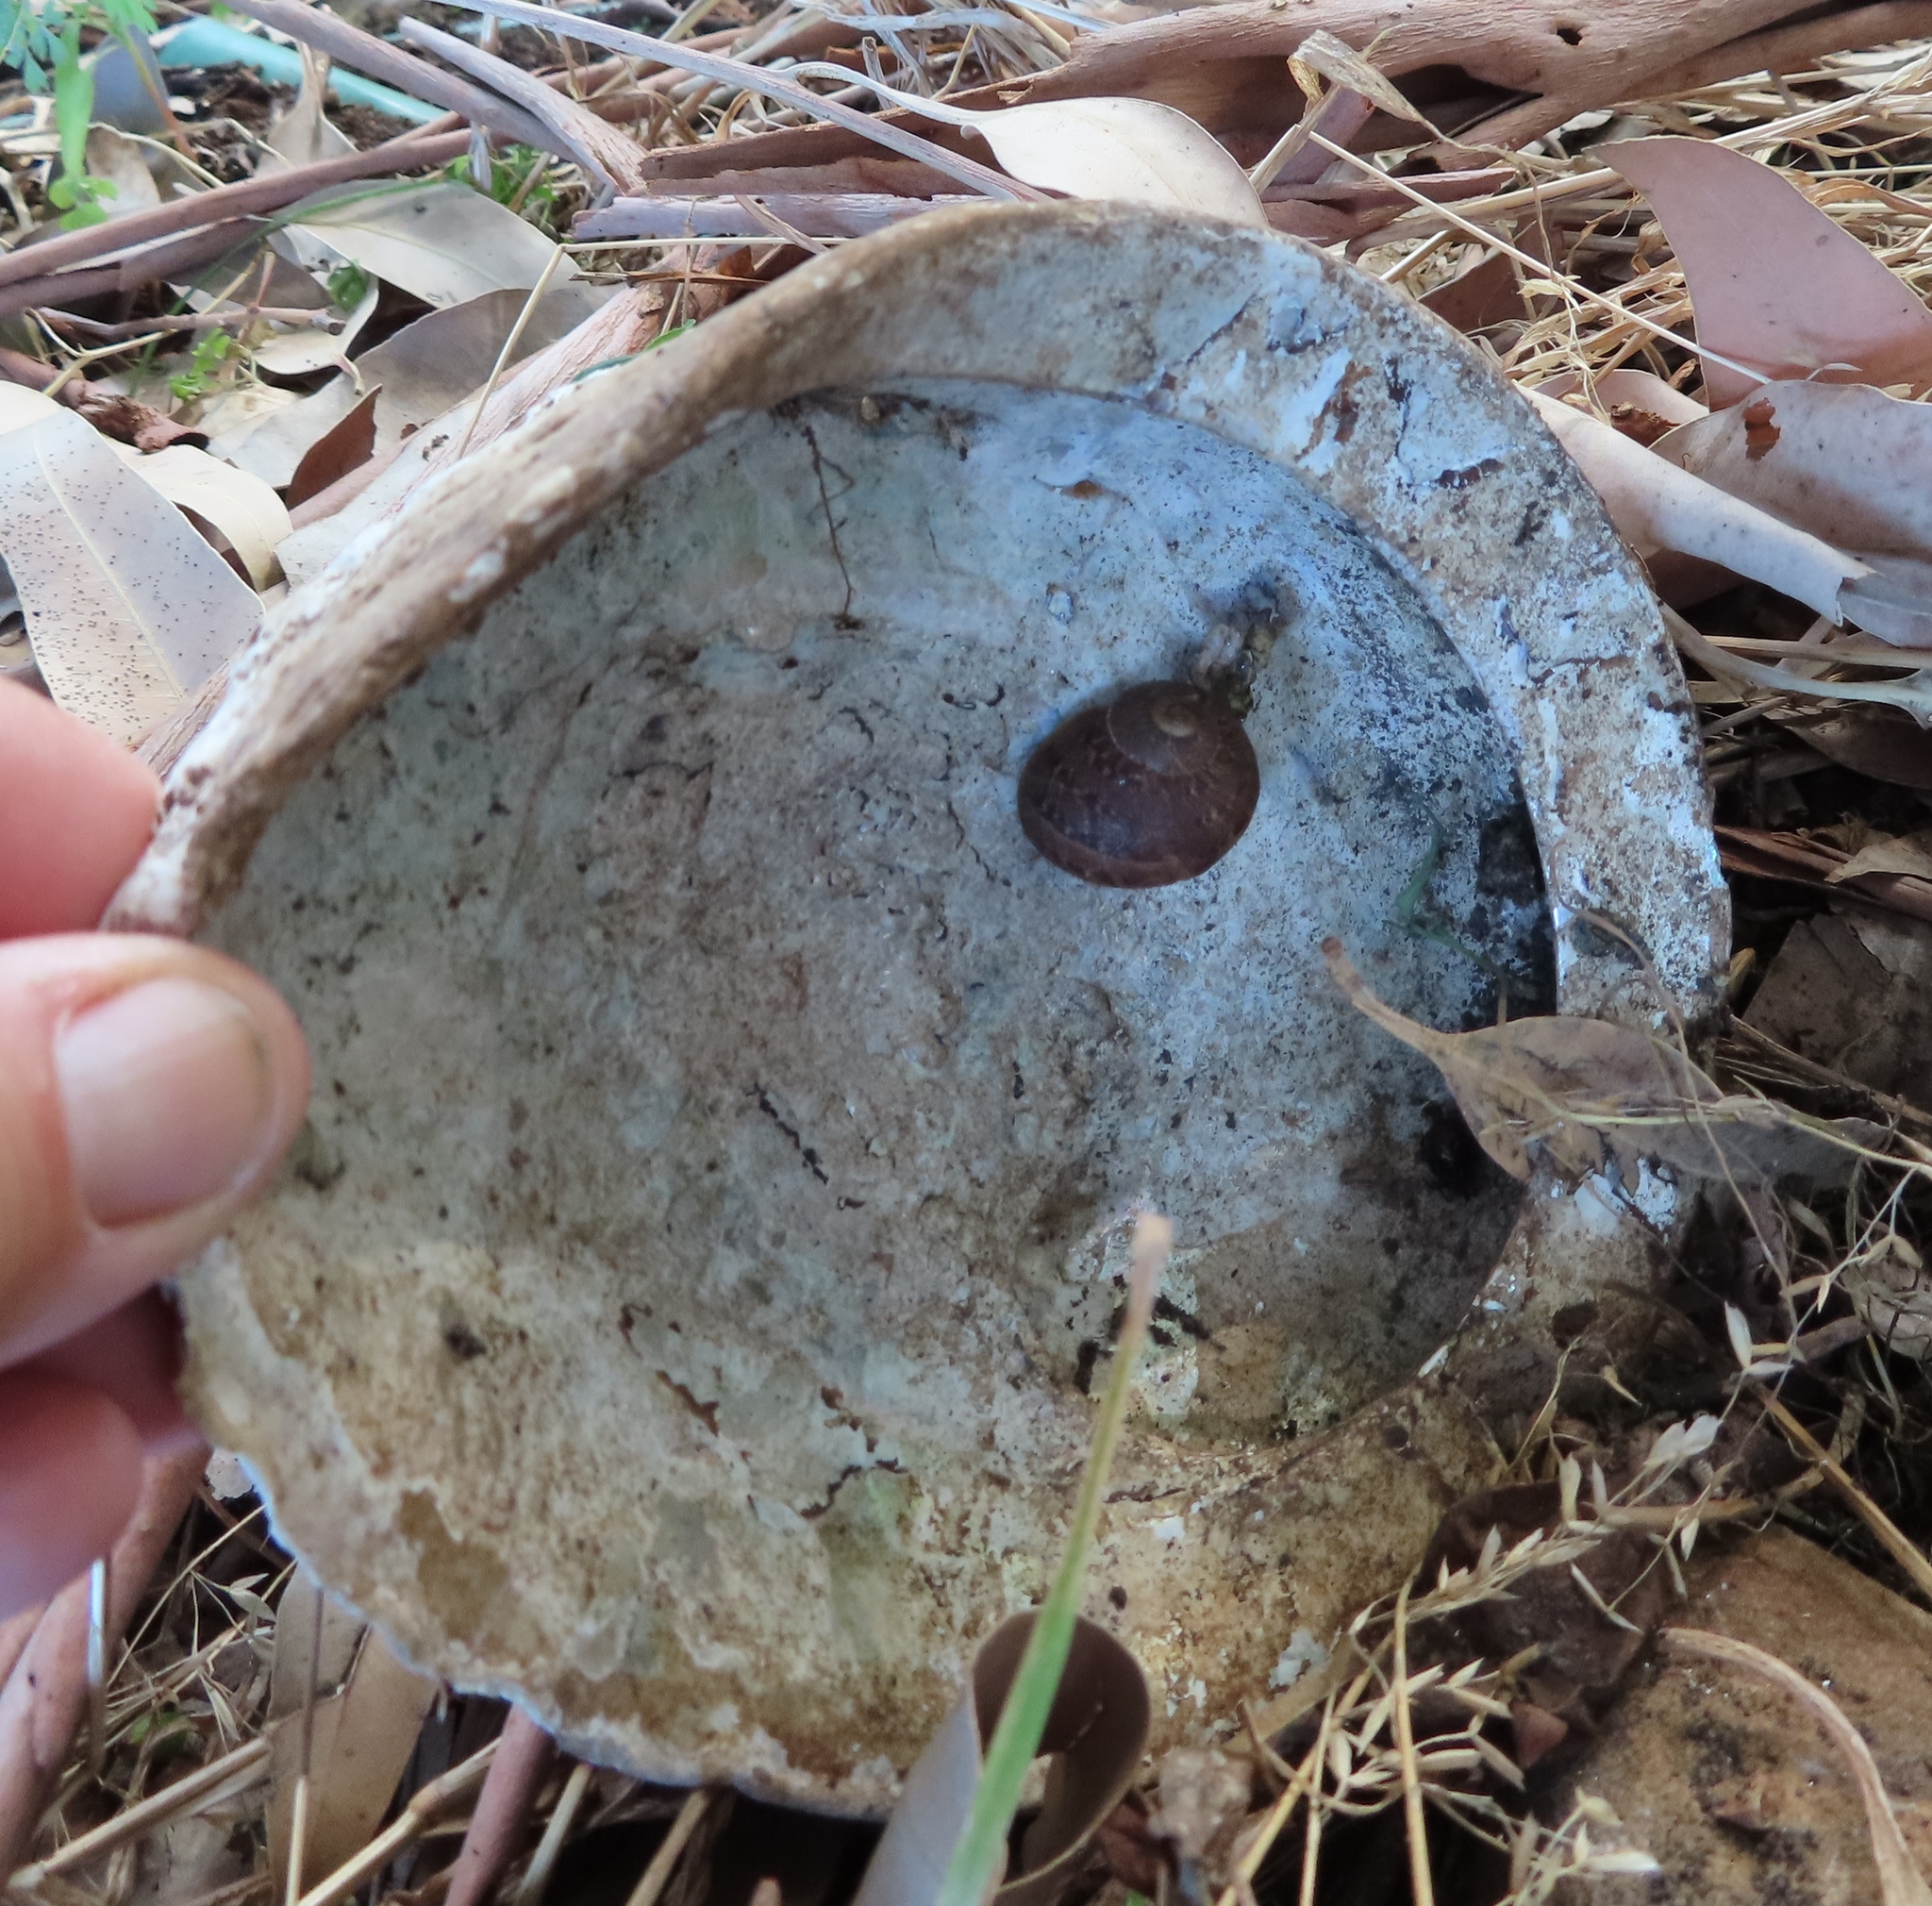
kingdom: Animalia
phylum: Mollusca
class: Gastropoda
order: Lepetellida
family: Haliotidae
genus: Haliotis
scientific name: Haliotis midae
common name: Perlemoen
